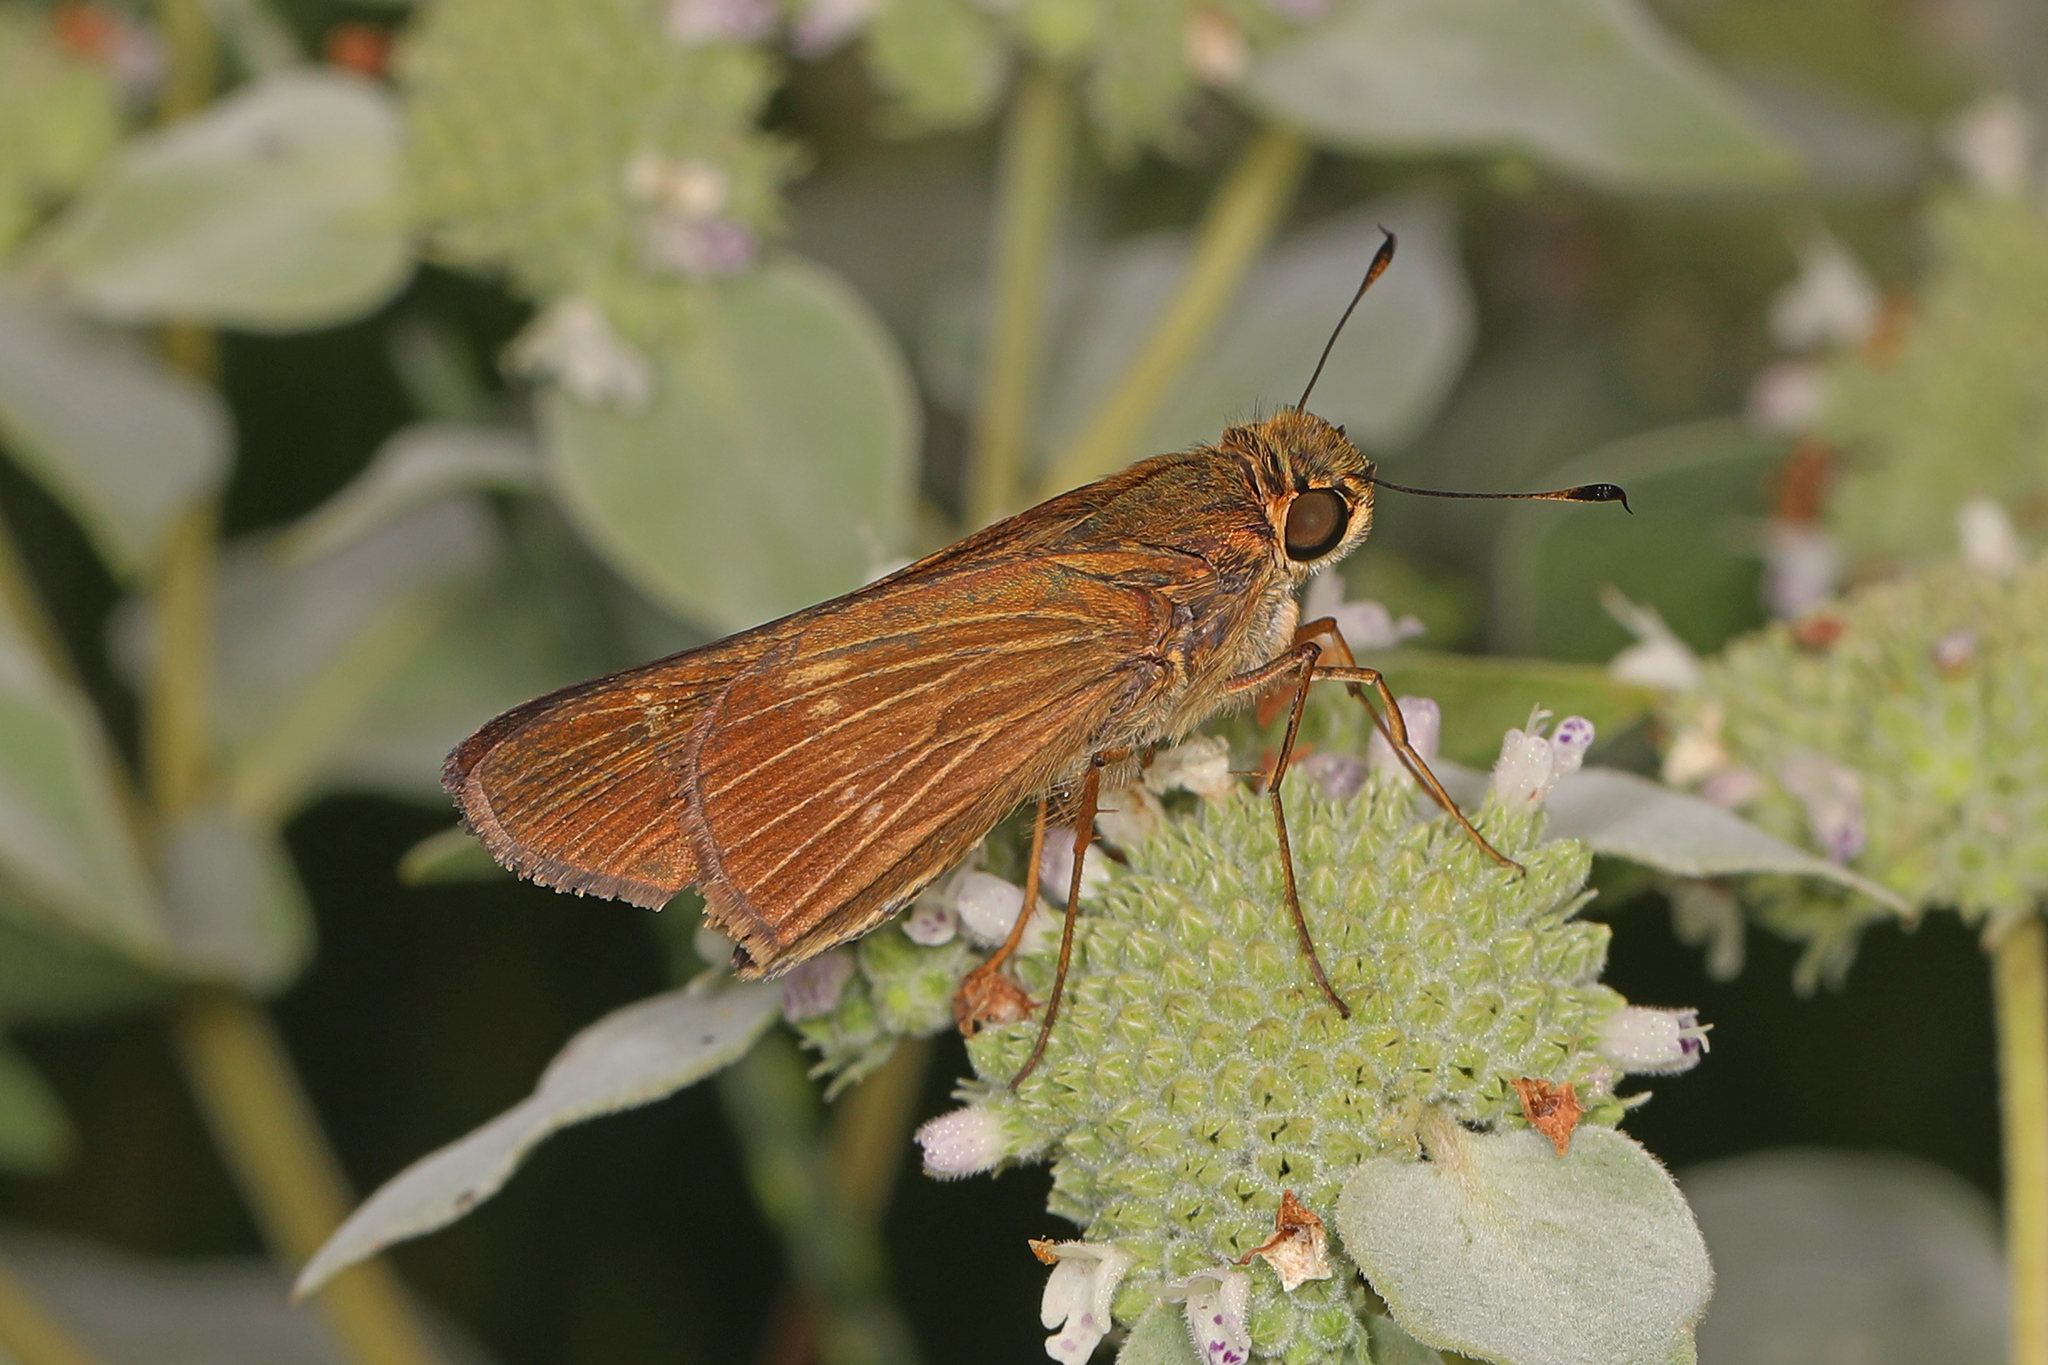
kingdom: Animalia
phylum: Arthropoda
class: Insecta
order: Lepidoptera
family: Hesperiidae
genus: Panoquina
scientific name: Panoquina ocola
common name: Ocola skipper
